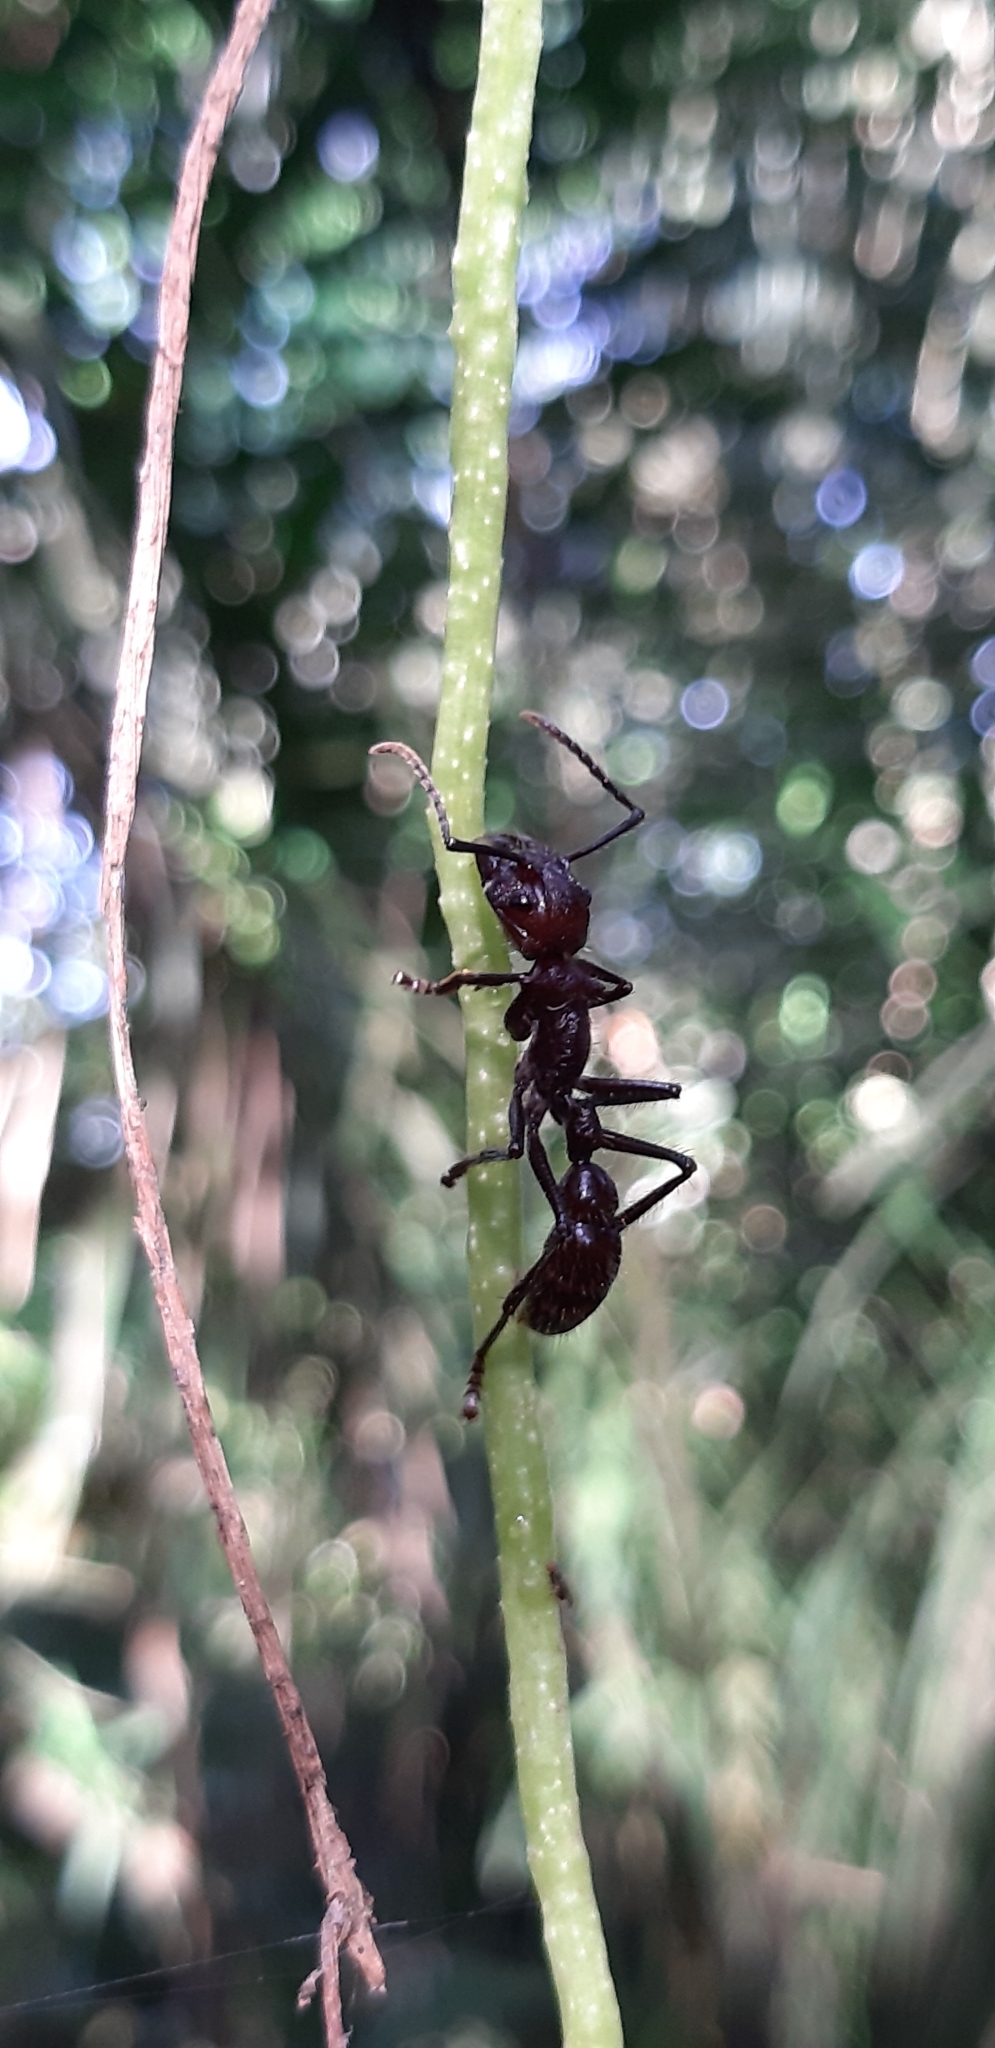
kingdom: Animalia
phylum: Arthropoda
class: Insecta
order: Hymenoptera
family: Formicidae
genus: Paraponera
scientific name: Paraponera clavata
